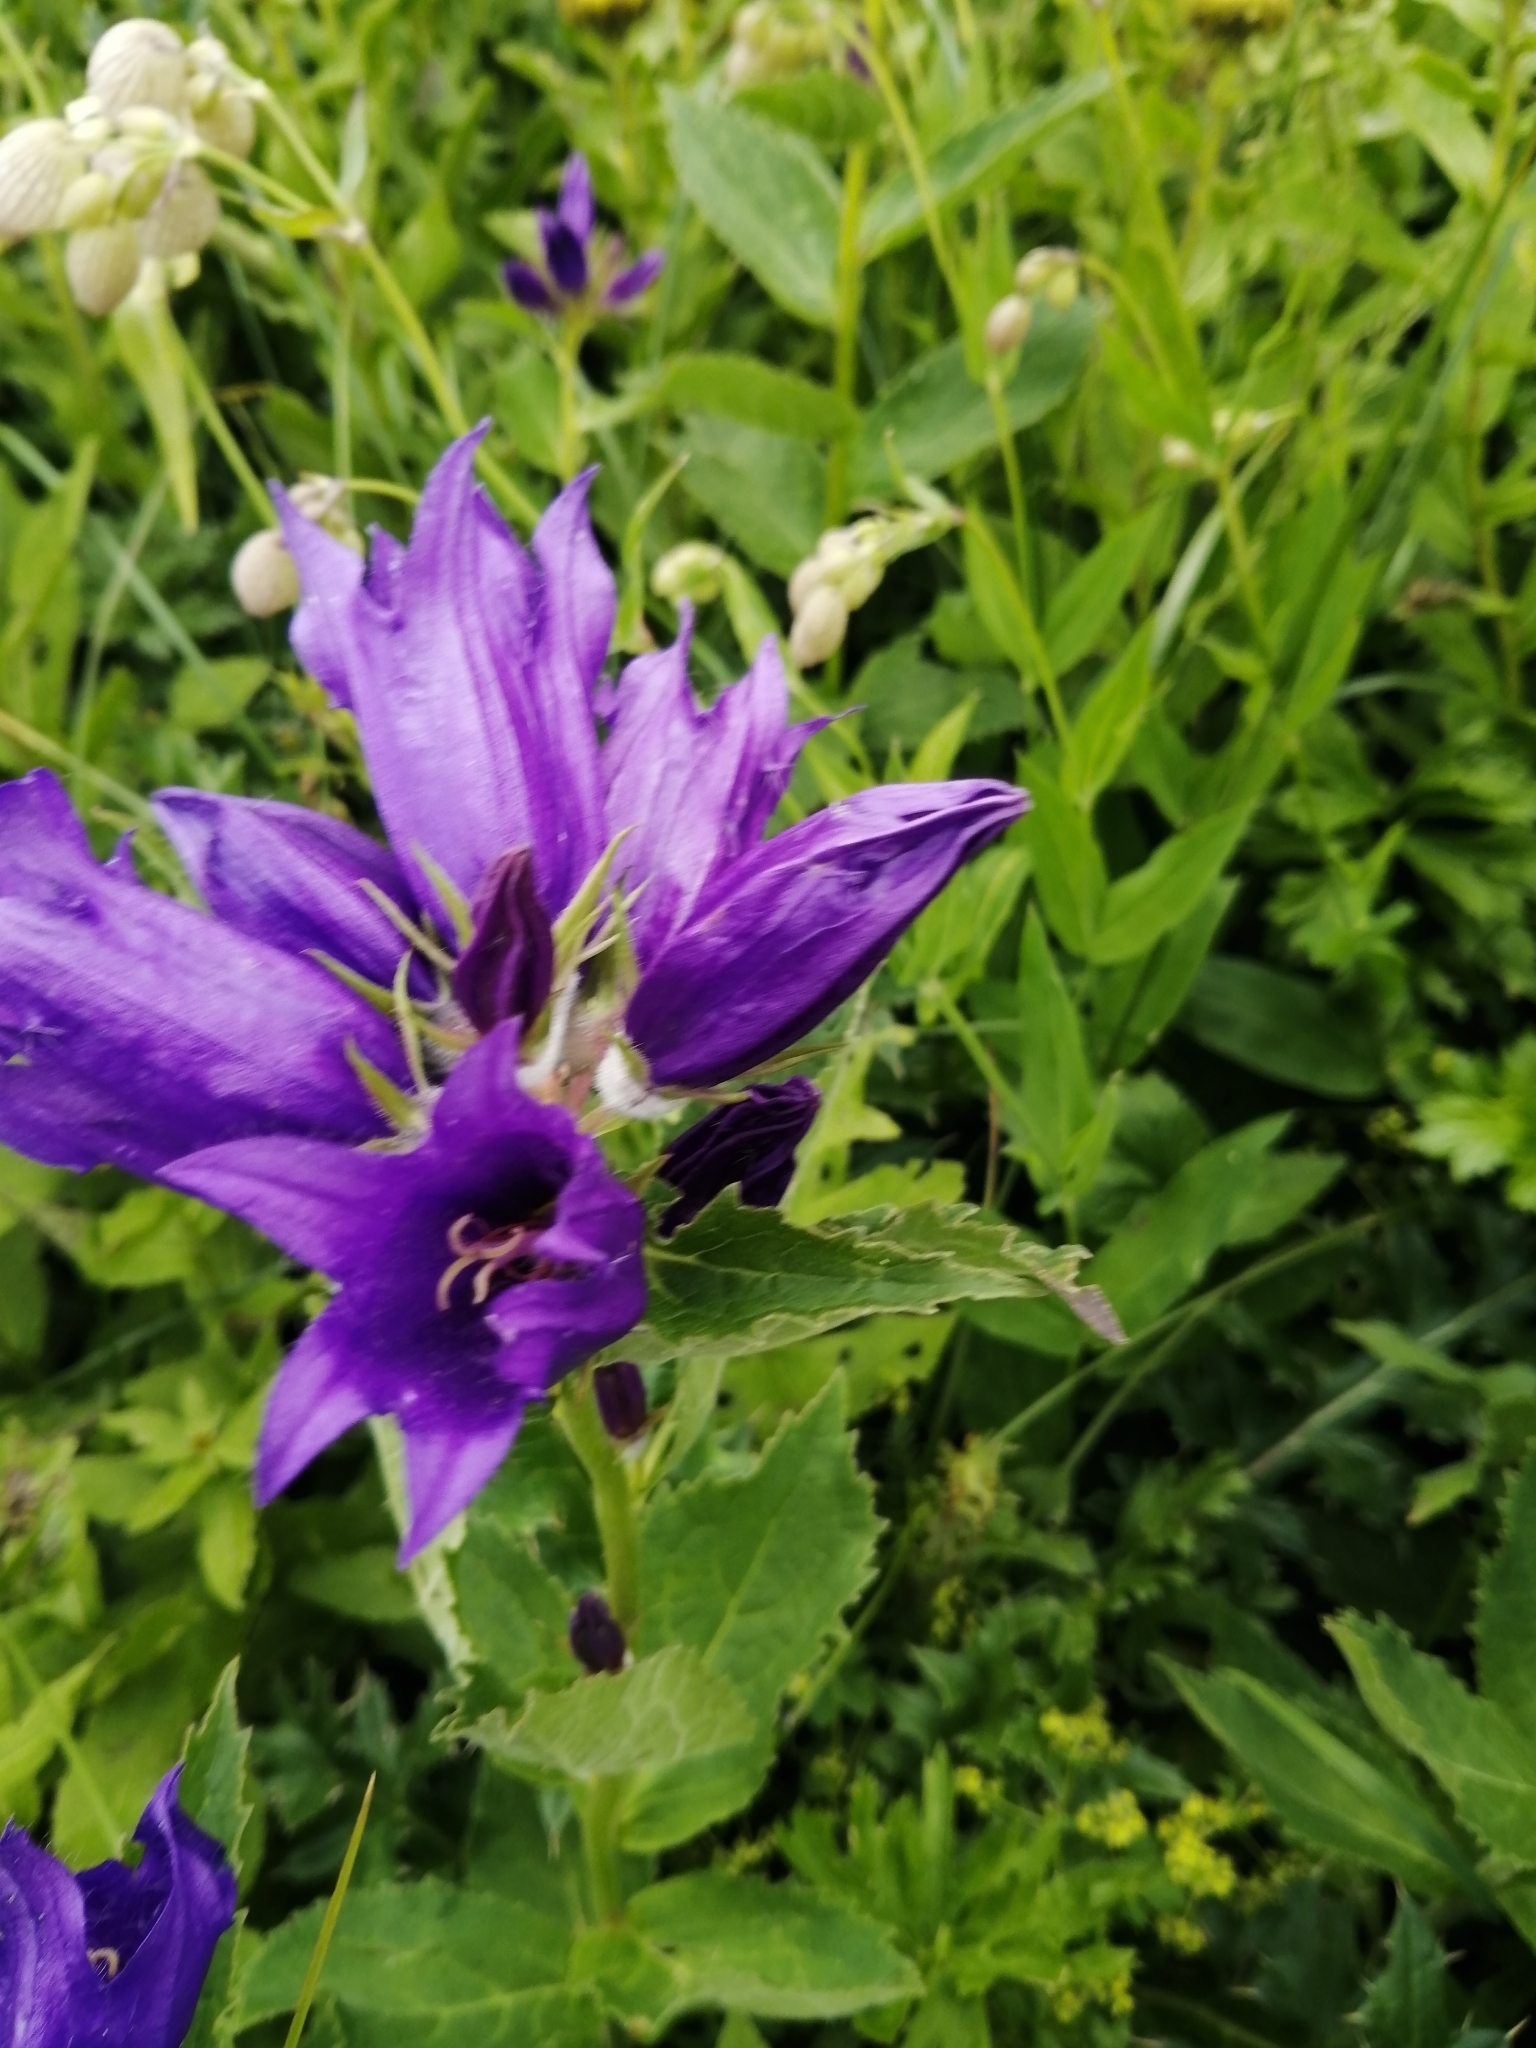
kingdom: Plantae
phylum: Tracheophyta
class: Magnoliopsida
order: Asterales
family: Campanulaceae
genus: Campanula
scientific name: Campanula glomerata
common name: Clustered bellflower
